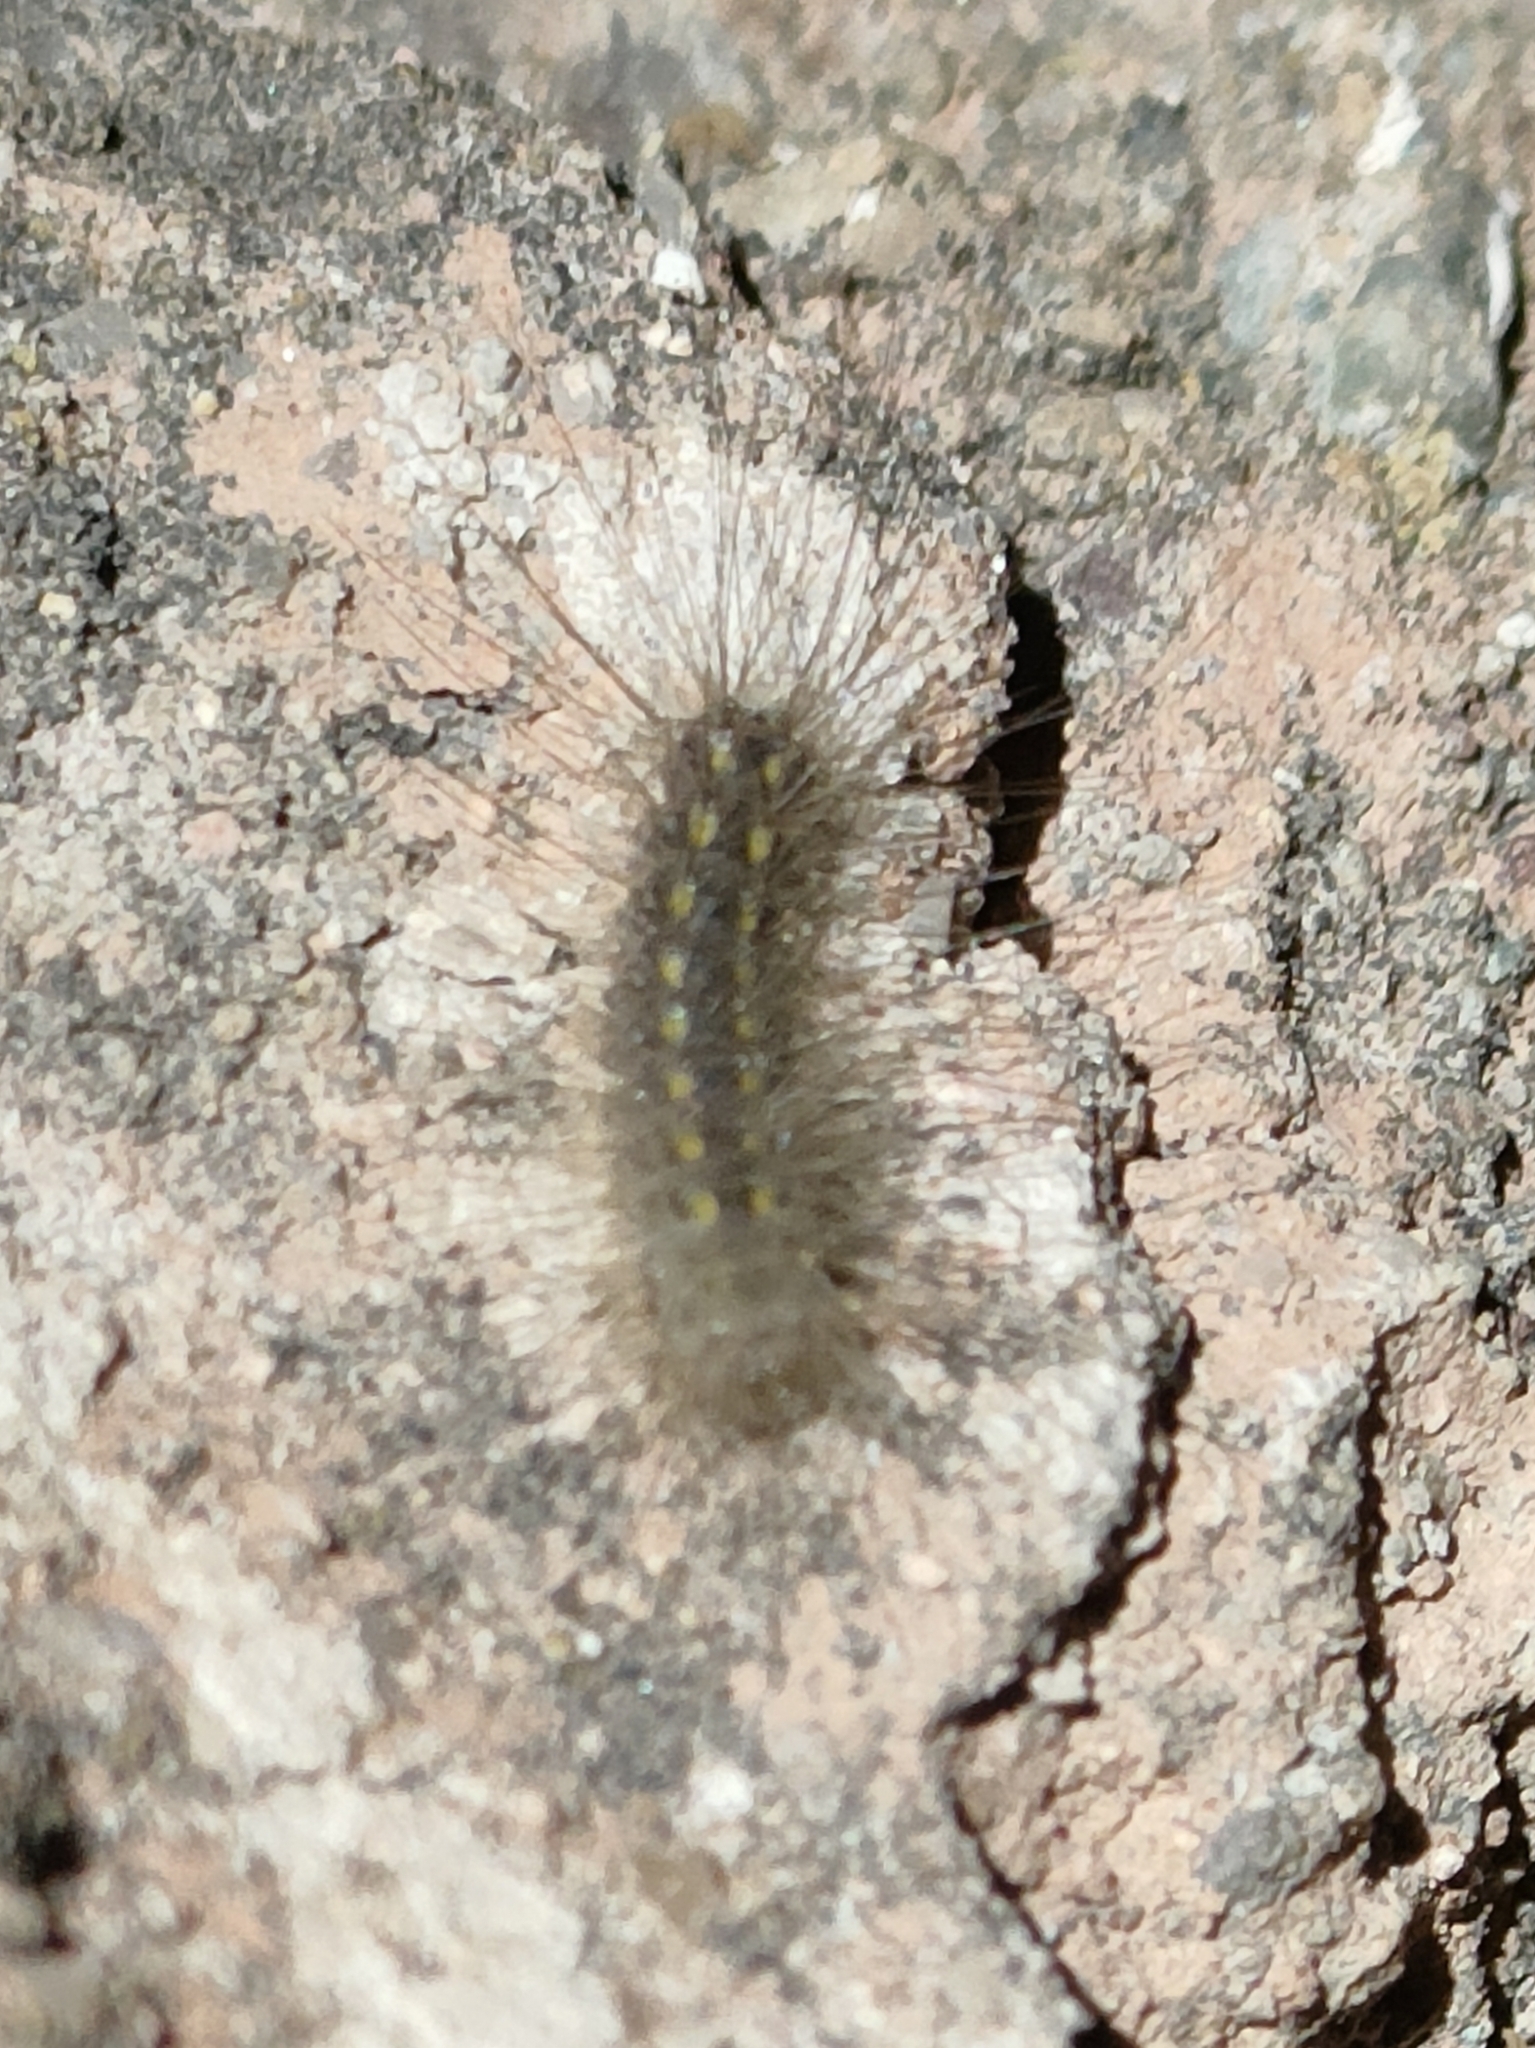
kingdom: Animalia
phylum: Arthropoda
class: Insecta
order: Lepidoptera
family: Erebidae
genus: Paidia
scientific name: Paidia rica
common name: Glaucous muslin
